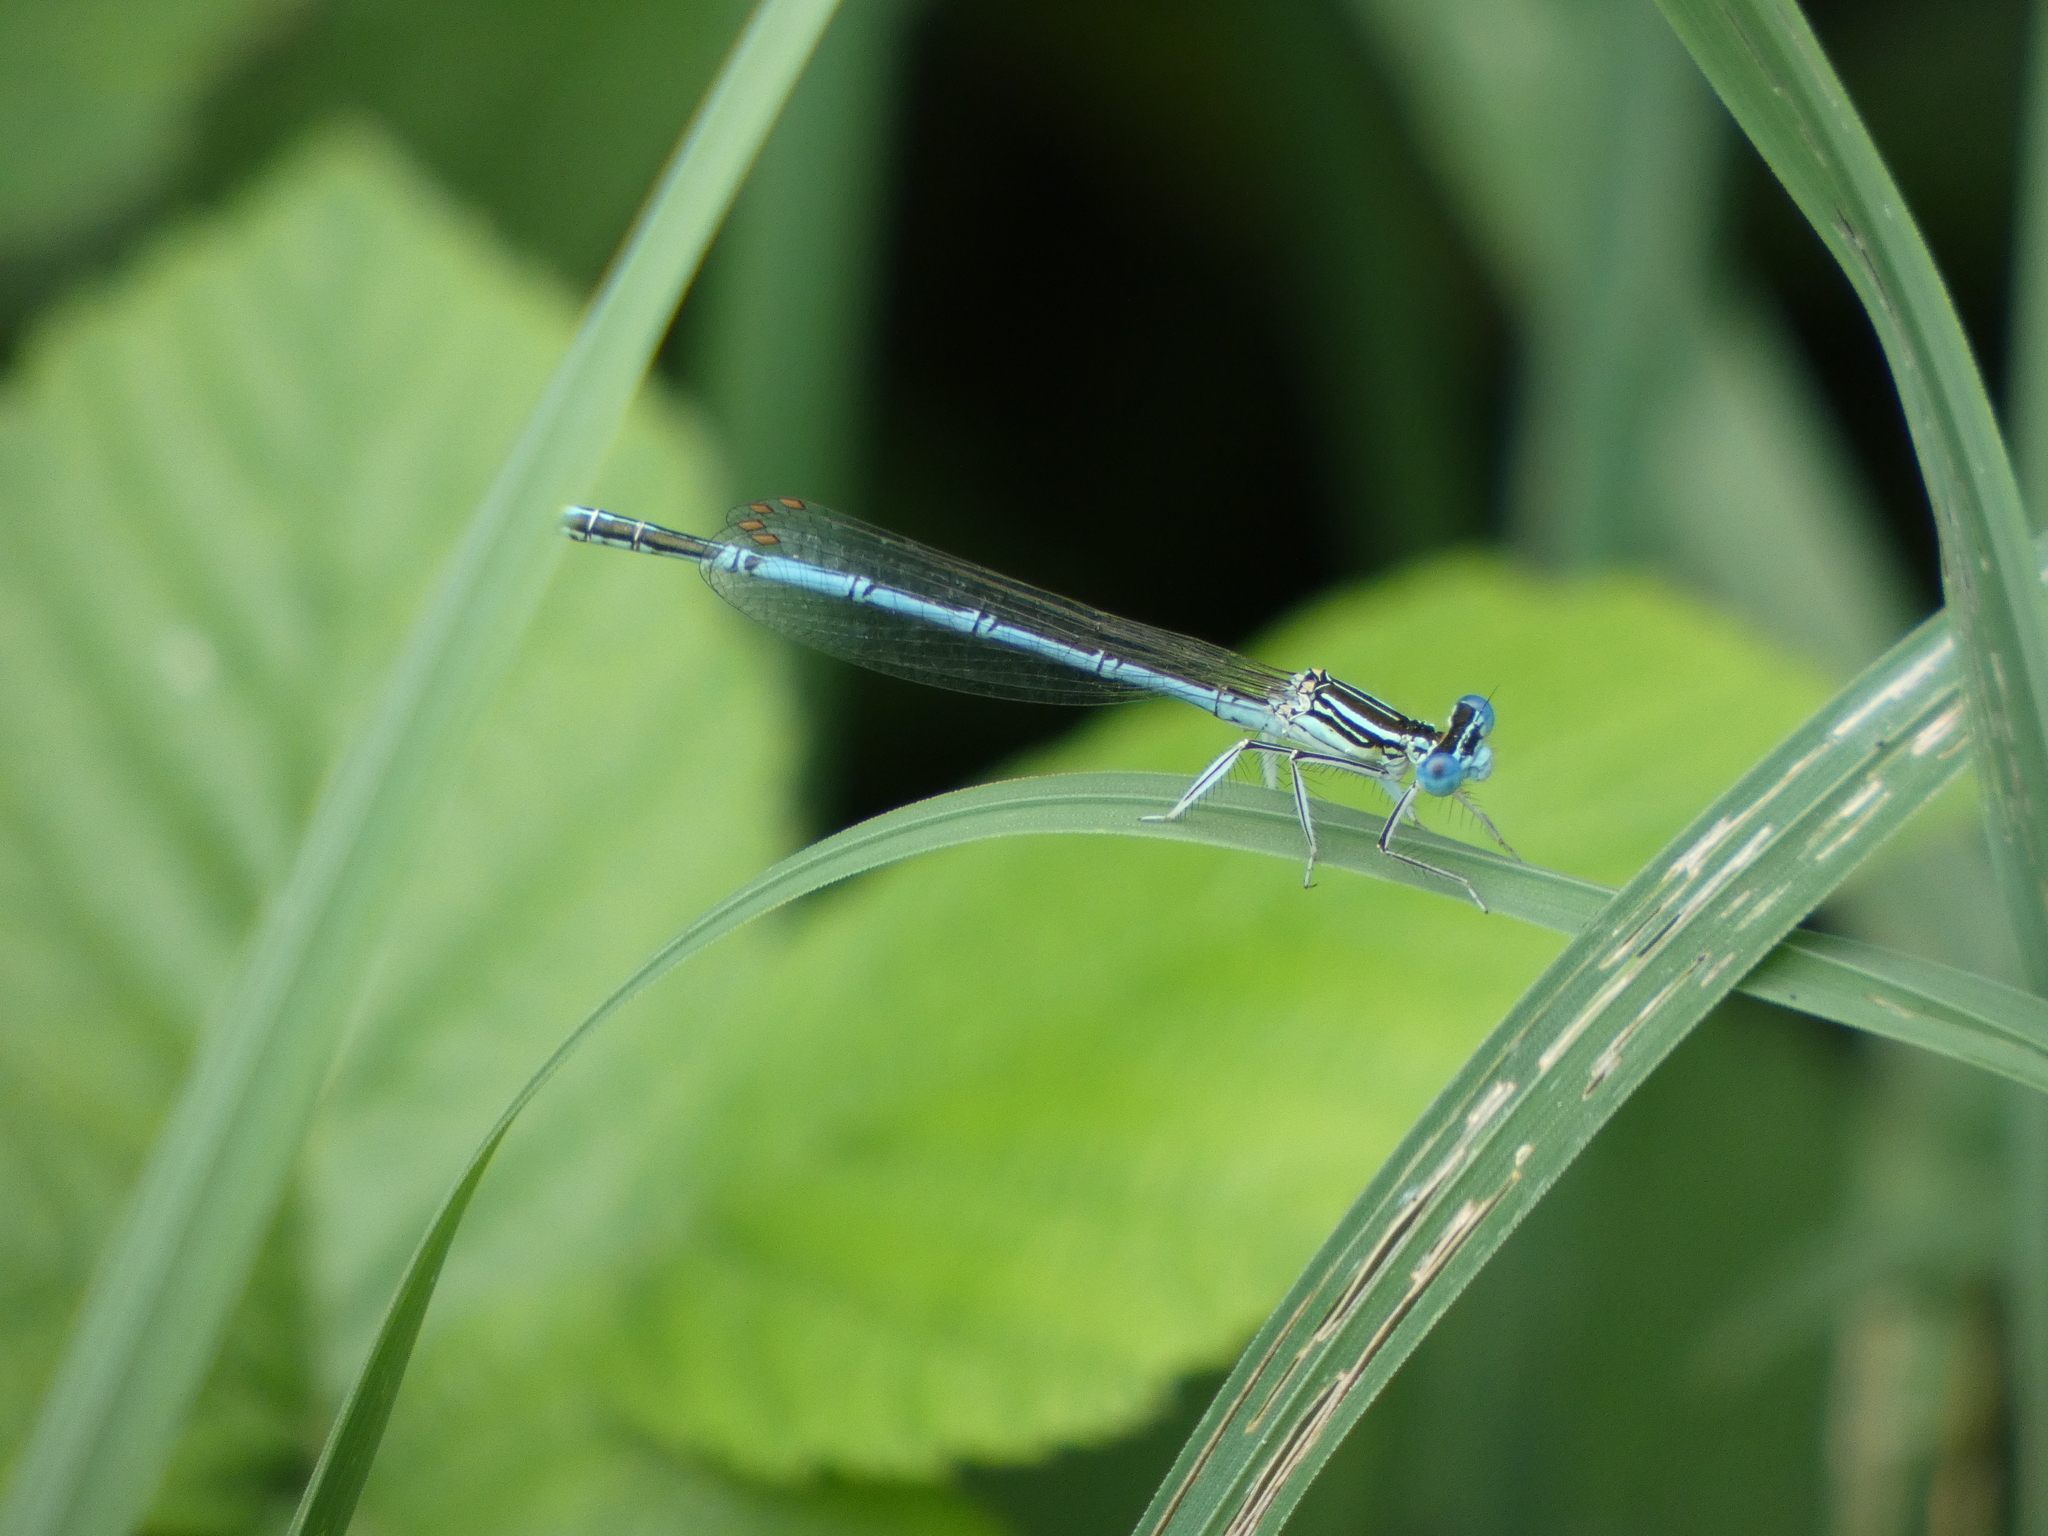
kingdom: Animalia
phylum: Arthropoda
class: Insecta
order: Odonata
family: Platycnemididae
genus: Platycnemis
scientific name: Platycnemis pennipes
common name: White-legged damselfly
